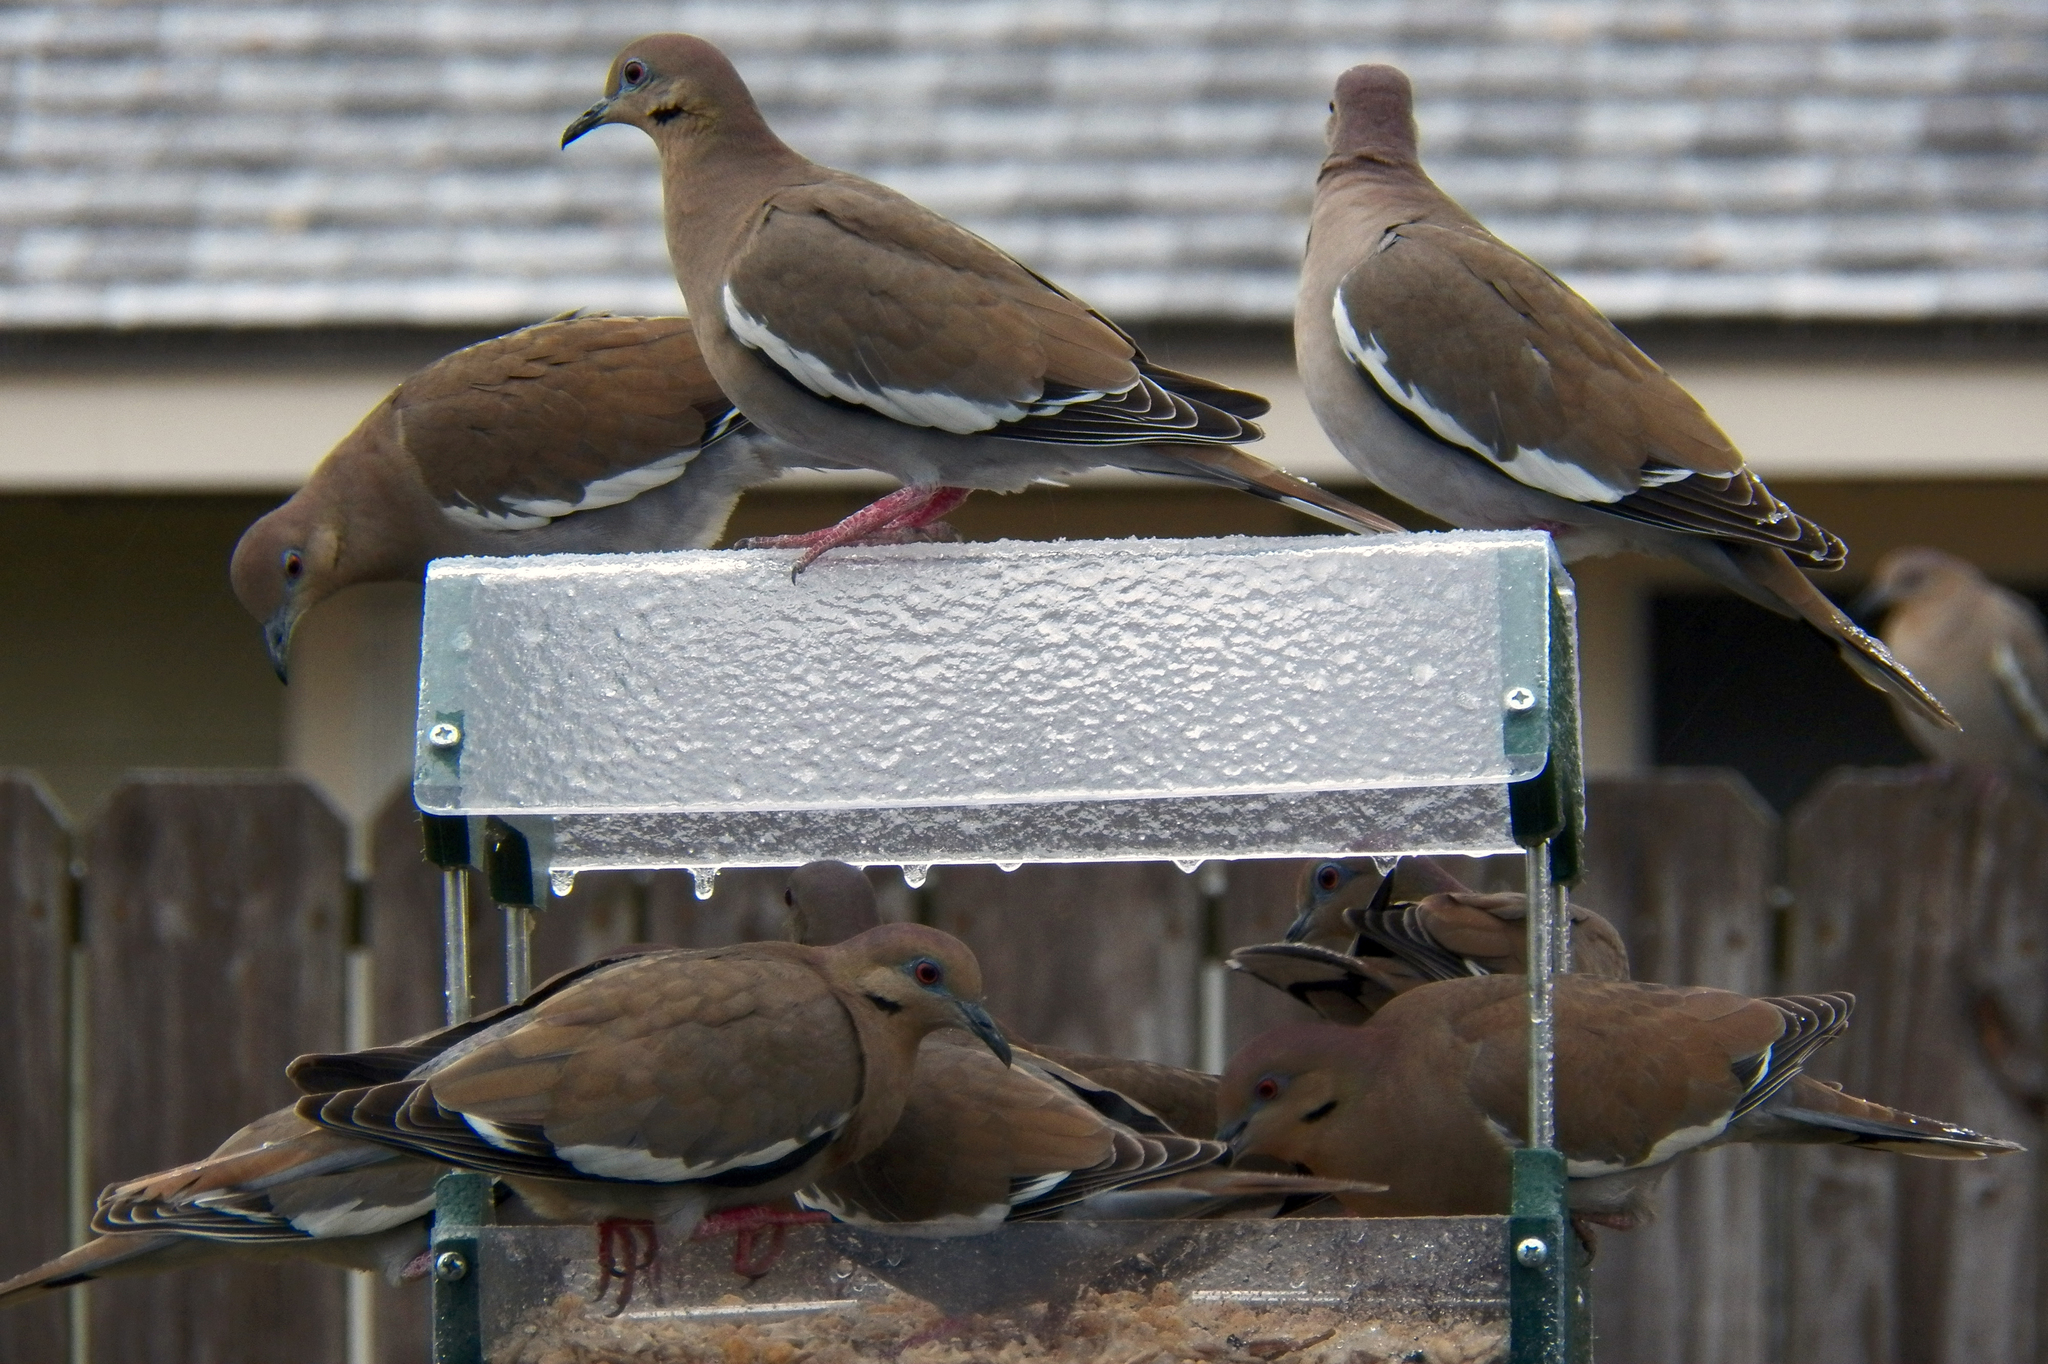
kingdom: Animalia
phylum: Chordata
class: Aves
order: Columbiformes
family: Columbidae
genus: Zenaida
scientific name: Zenaida asiatica
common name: White-winged dove
